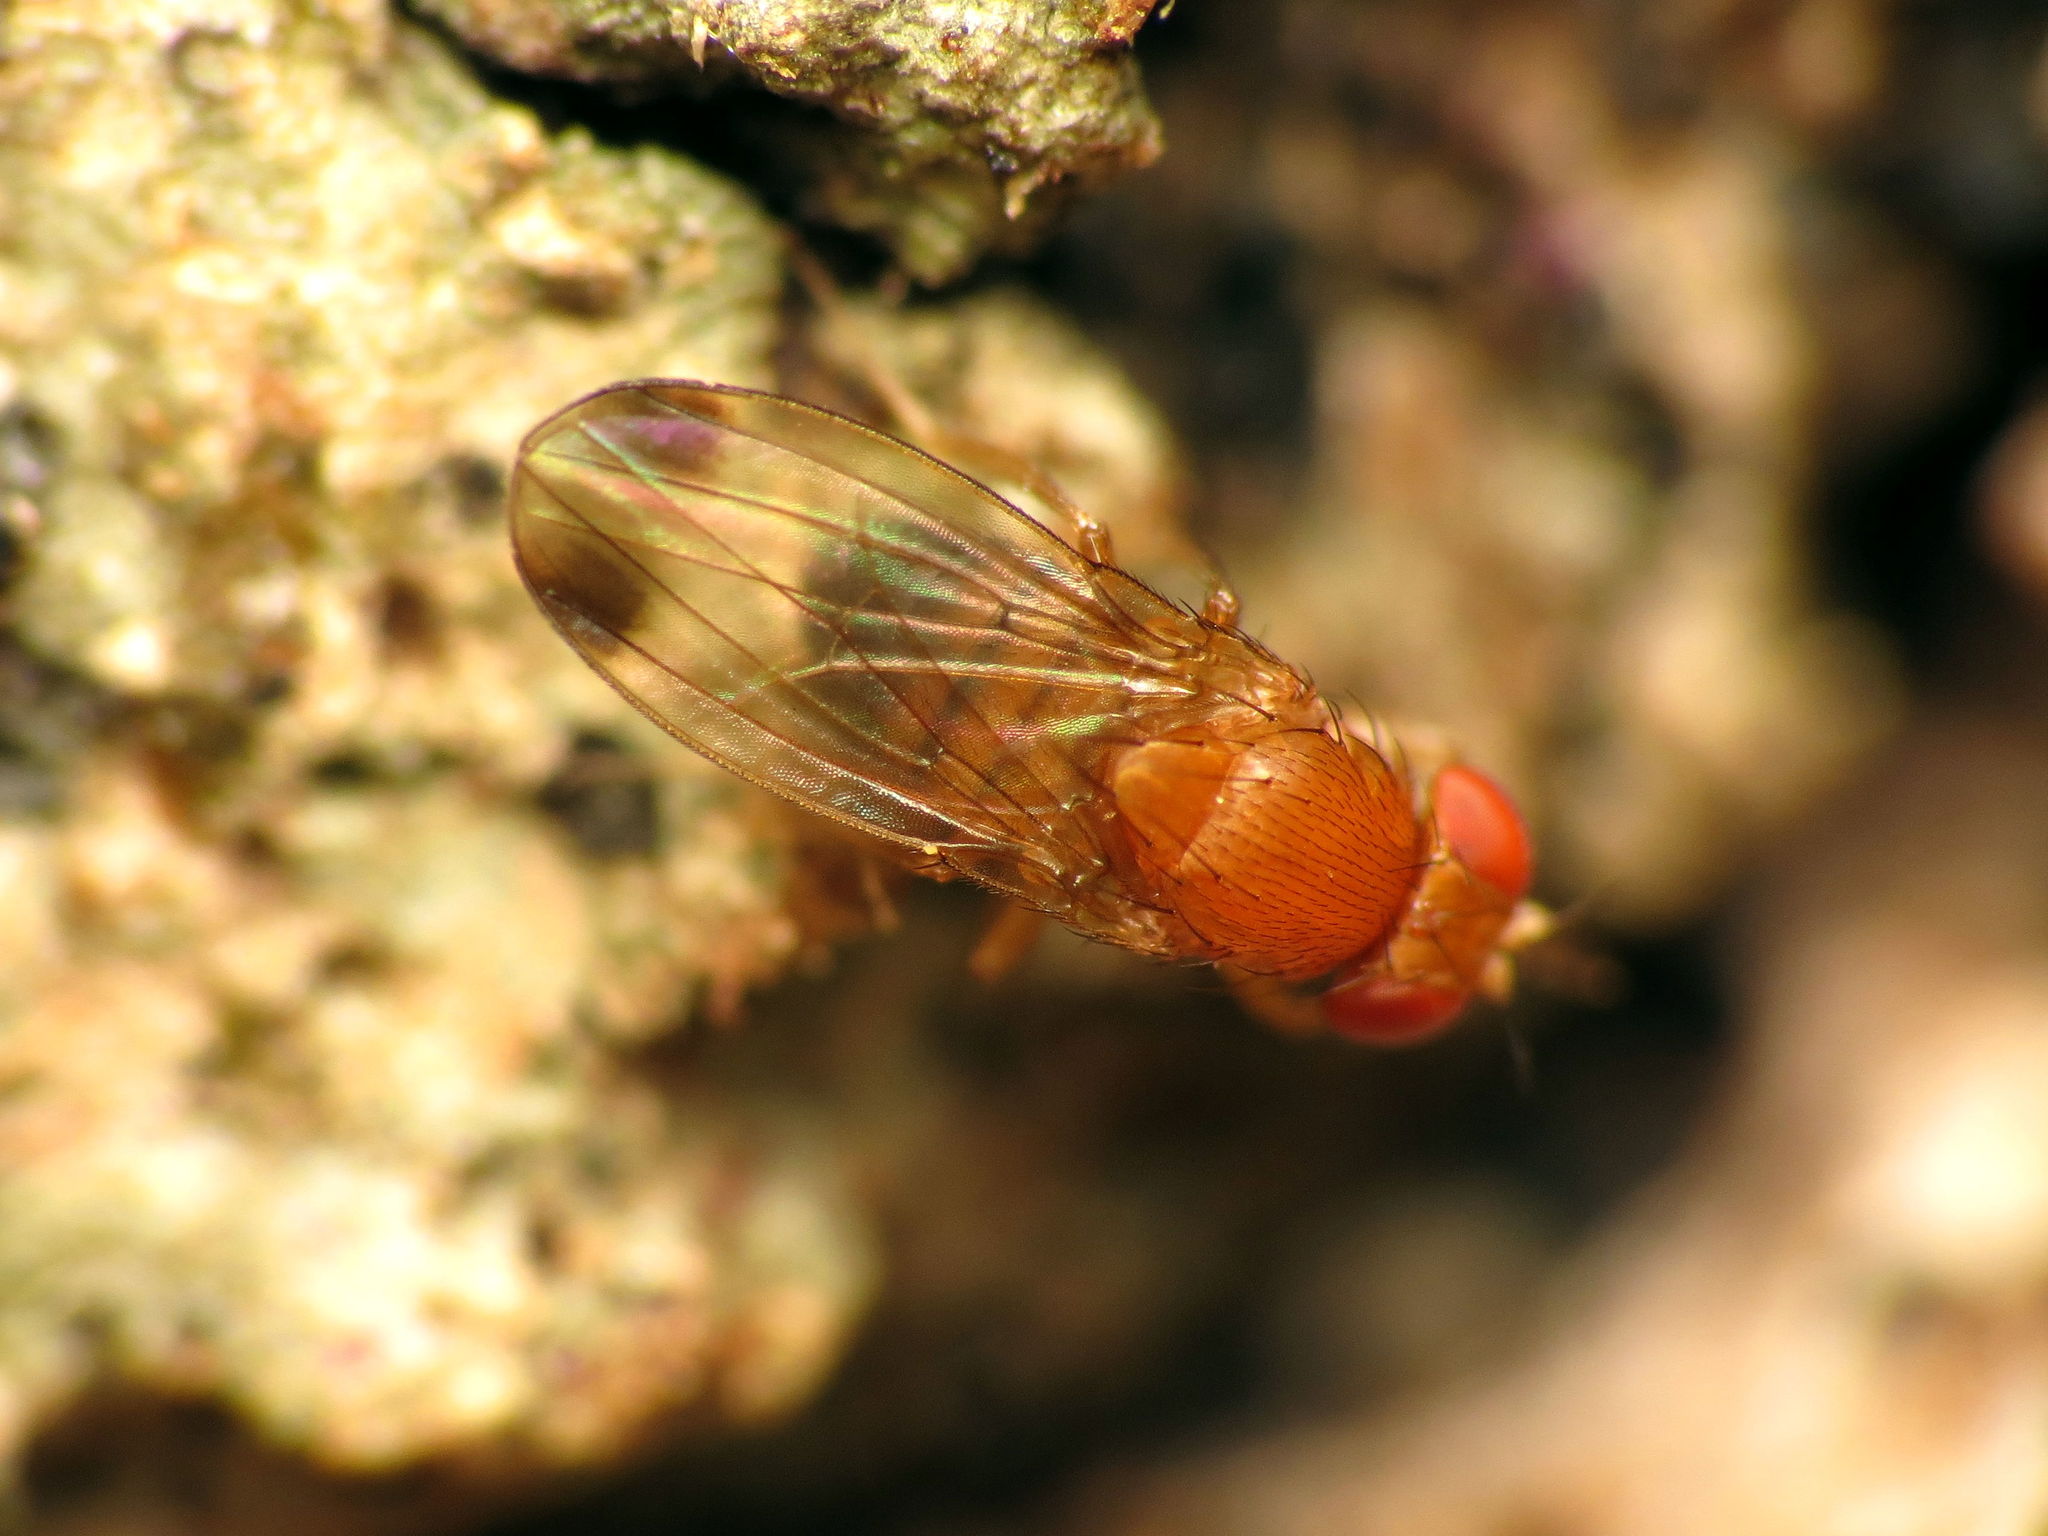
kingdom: Animalia
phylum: Arthropoda
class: Insecta
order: Diptera
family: Drosophilidae
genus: Drosophila
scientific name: Drosophila suzukii
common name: Spotted-wing drosophila
